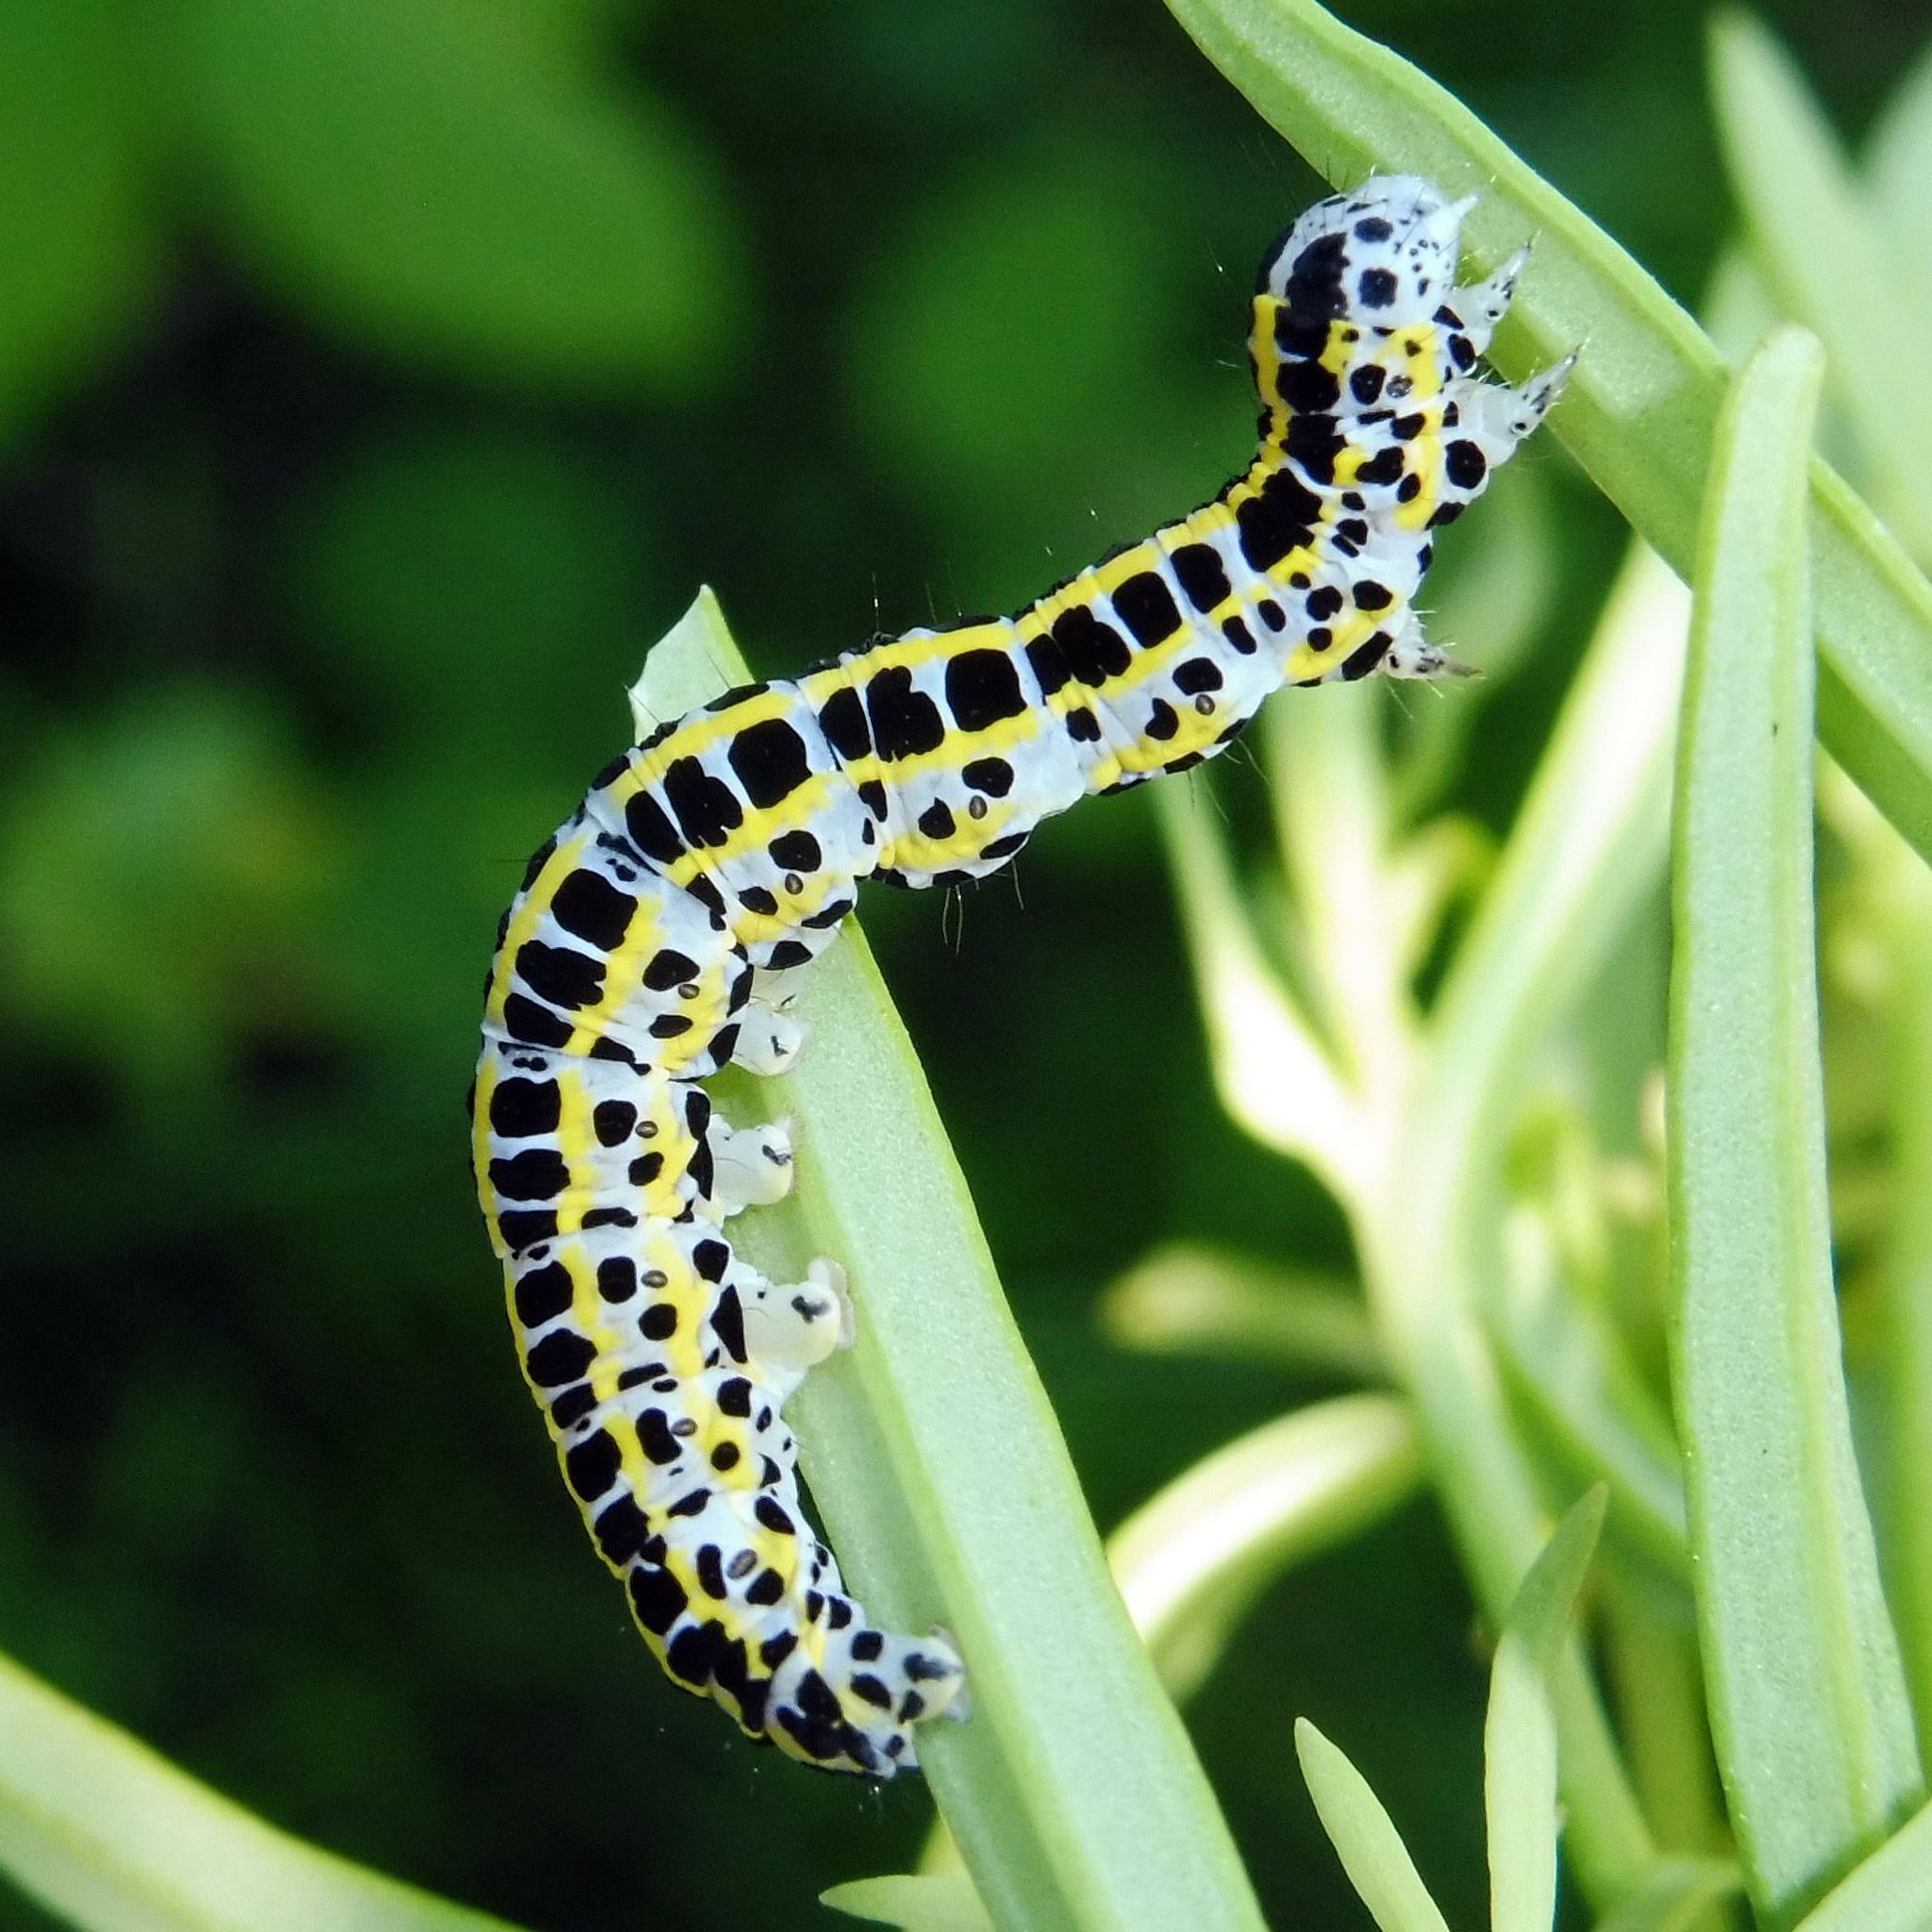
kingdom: Animalia
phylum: Arthropoda
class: Insecta
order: Lepidoptera
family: Noctuidae
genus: Calophasia
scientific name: Calophasia lunula
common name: Toadflax brocade
